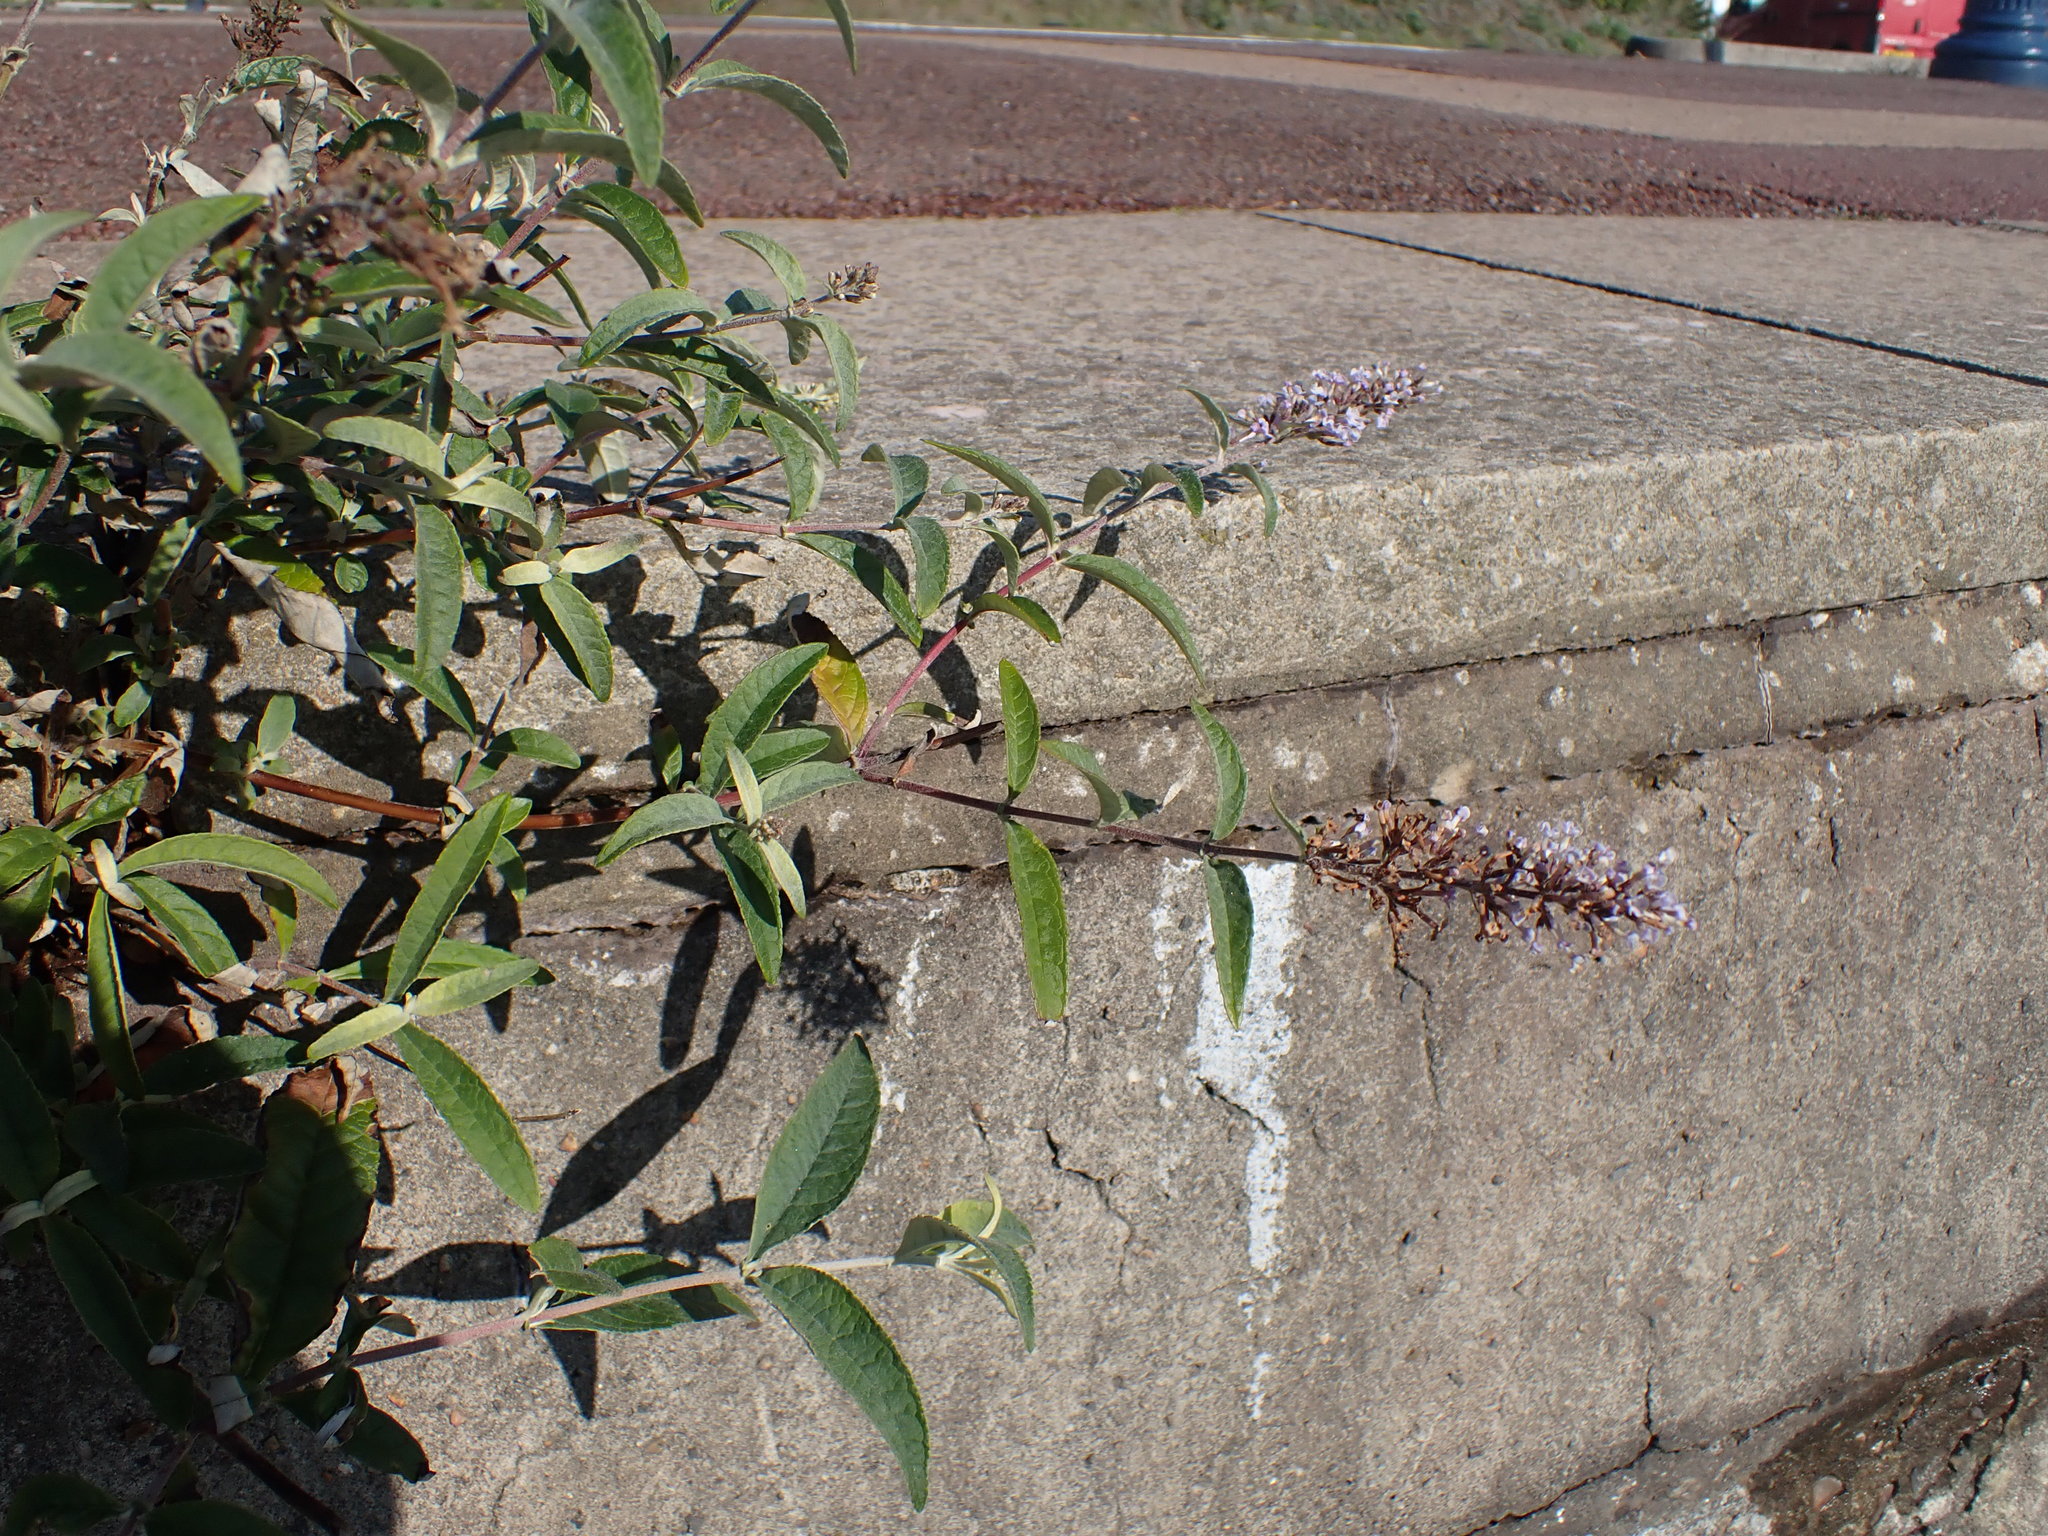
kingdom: Plantae
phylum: Tracheophyta
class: Magnoliopsida
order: Lamiales
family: Scrophulariaceae
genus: Buddleja
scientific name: Buddleja davidii
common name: Butterfly-bush
